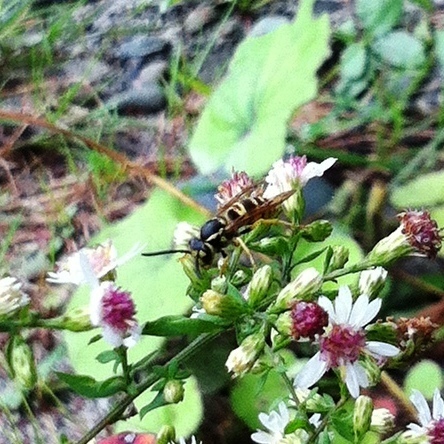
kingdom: Animalia
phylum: Arthropoda
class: Insecta
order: Hymenoptera
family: Vespidae
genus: Vespula
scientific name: Vespula maculifrons
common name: Eastern yellowjacket
